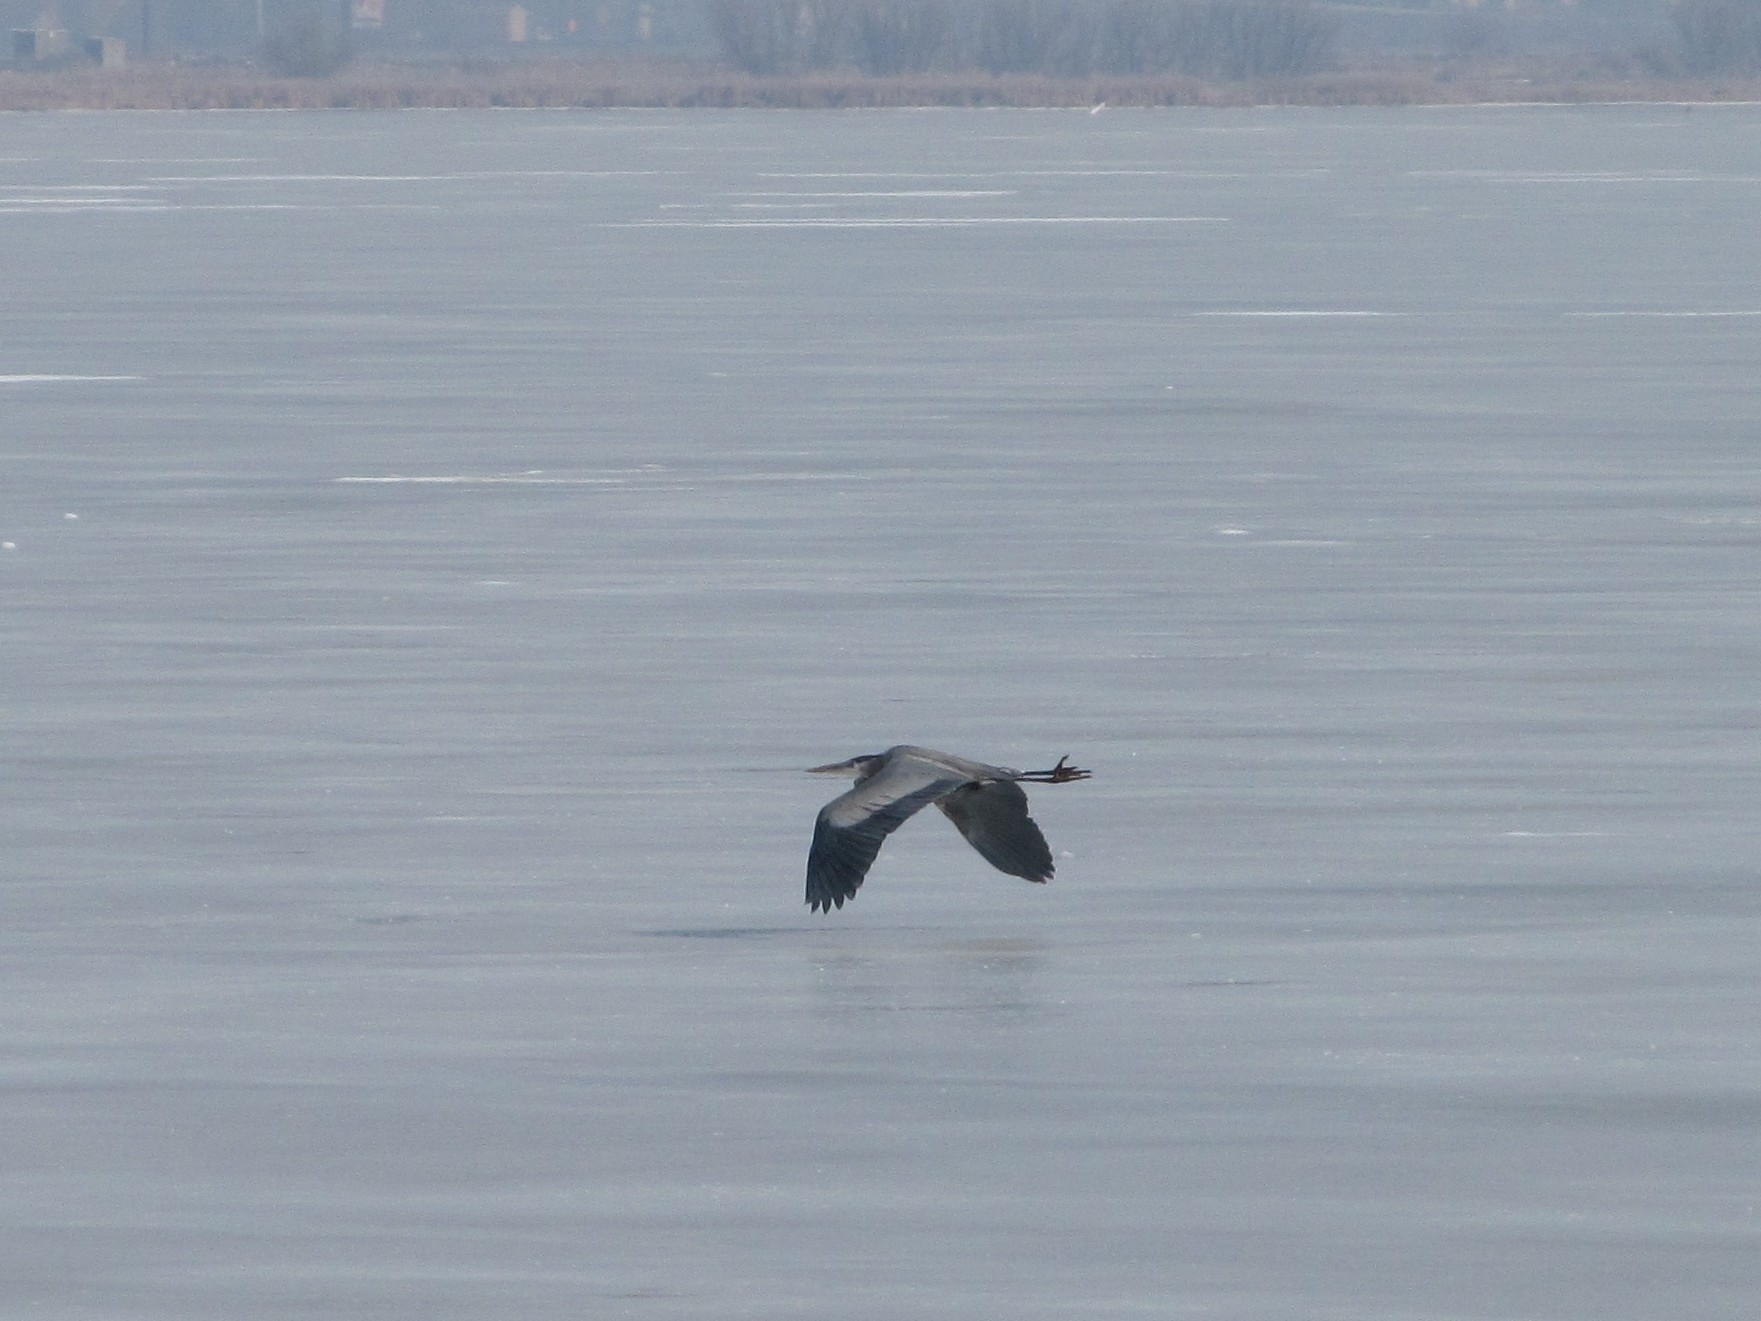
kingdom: Animalia
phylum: Chordata
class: Aves
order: Pelecaniformes
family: Ardeidae
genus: Ardea
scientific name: Ardea herodias
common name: Great blue heron
